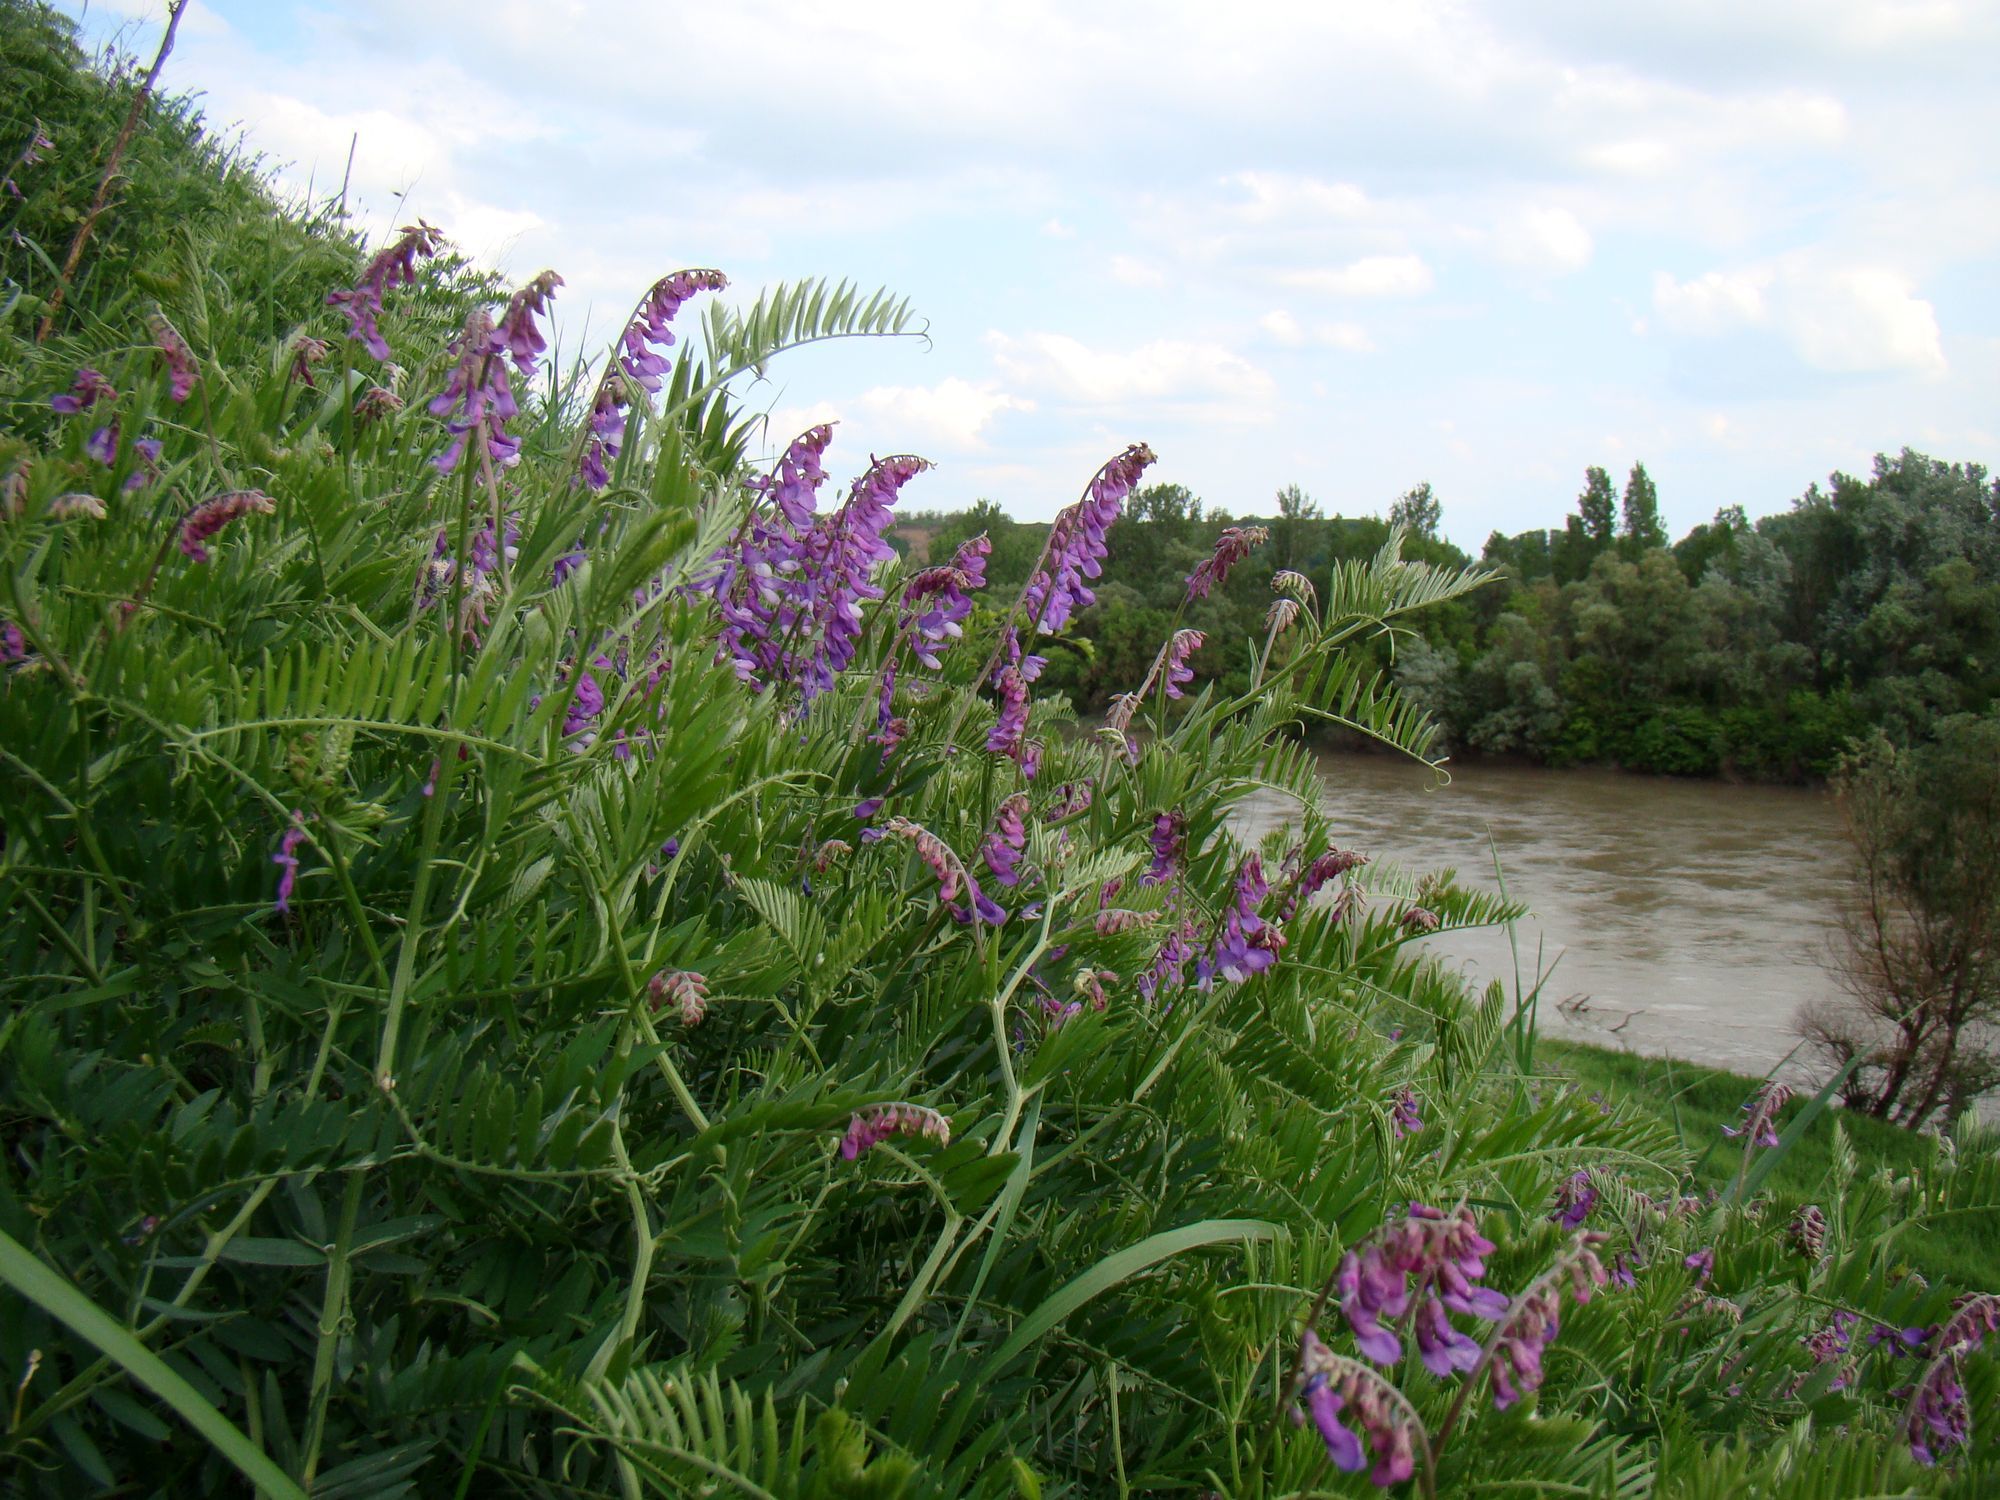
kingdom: Plantae
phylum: Tracheophyta
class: Magnoliopsida
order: Fabales
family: Fabaceae
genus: Vicia
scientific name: Vicia tenuifolia
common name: Fine-leaved vetch
